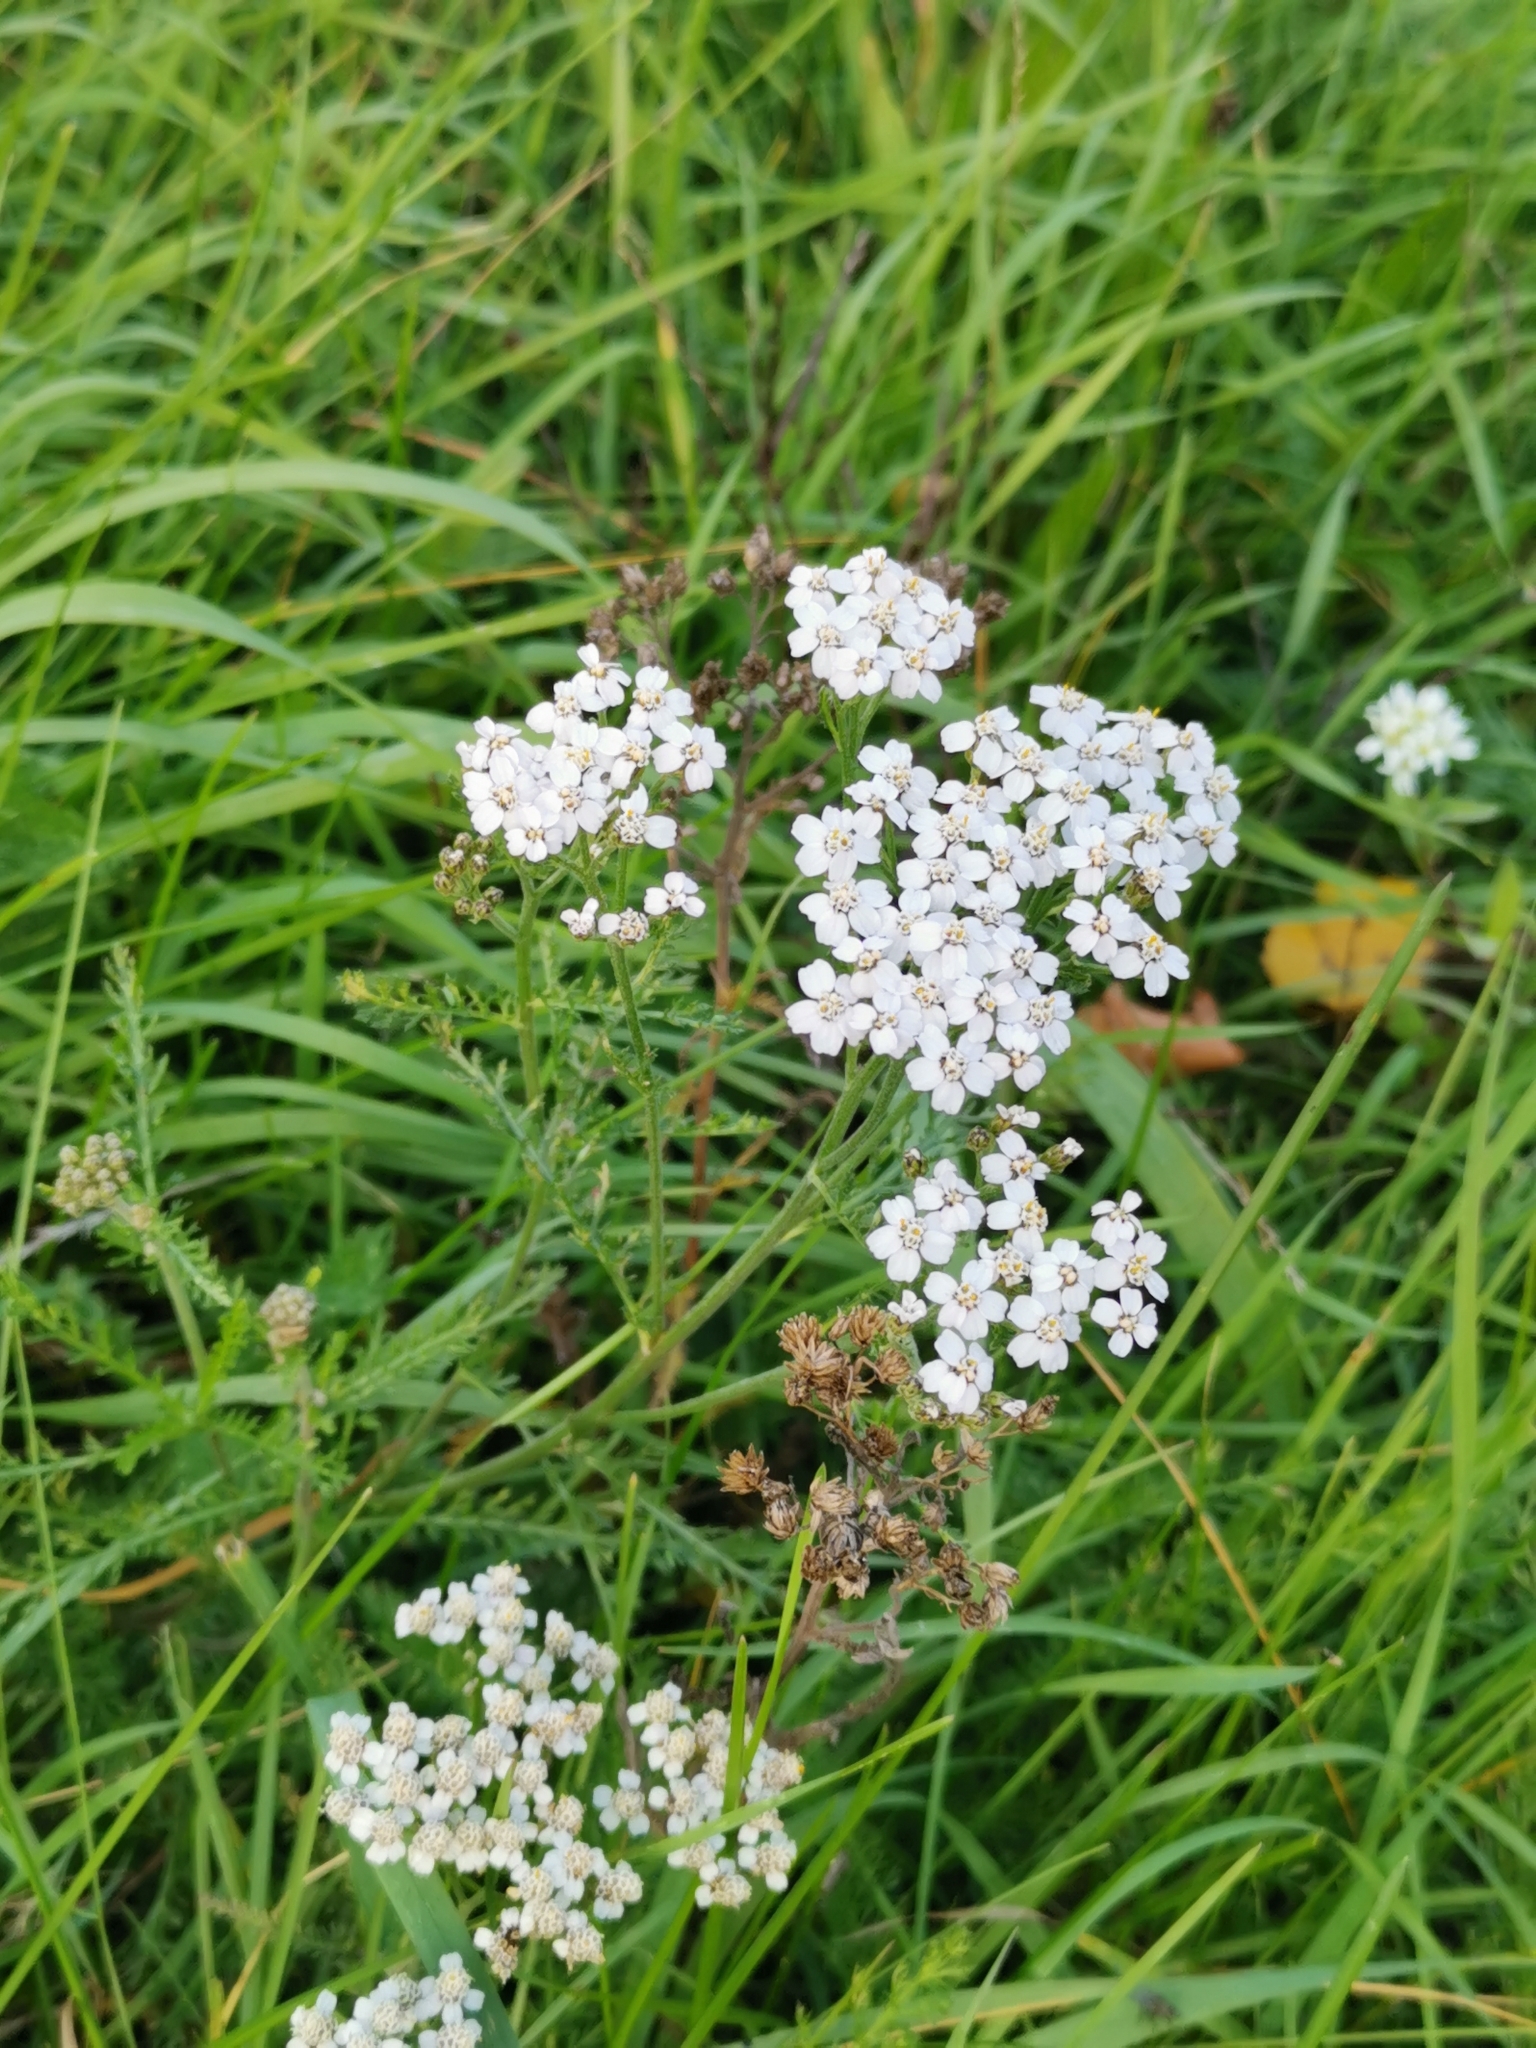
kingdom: Plantae
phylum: Tracheophyta
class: Magnoliopsida
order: Asterales
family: Asteraceae
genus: Achillea
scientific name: Achillea millefolium
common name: Yarrow
